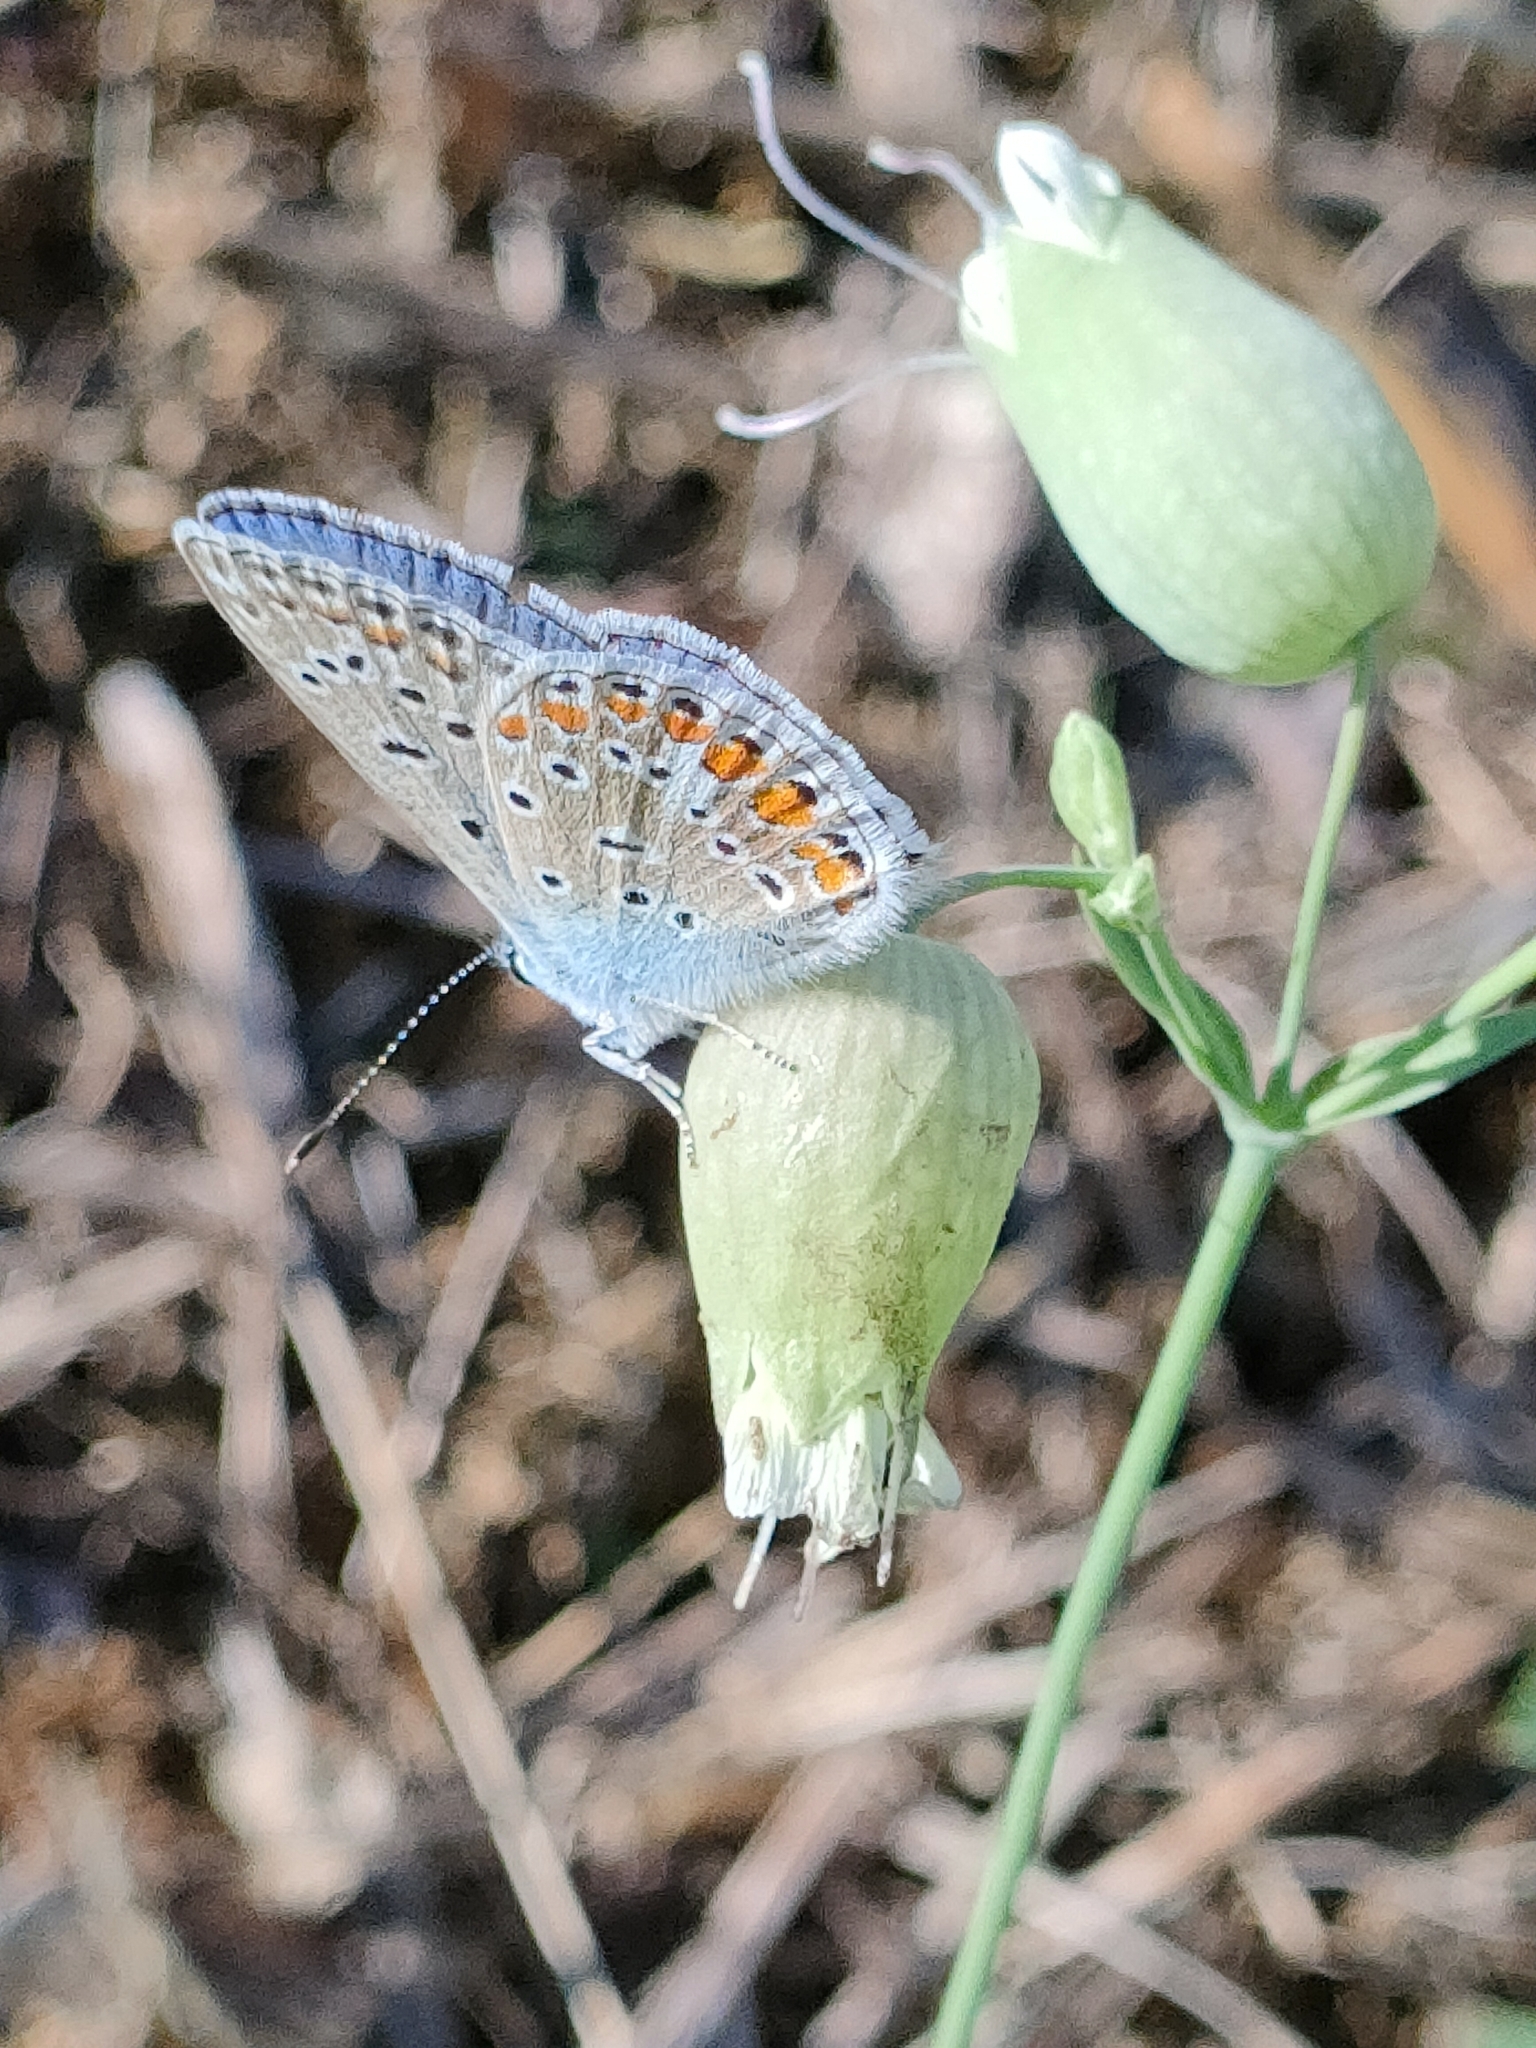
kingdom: Animalia
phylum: Arthropoda
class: Insecta
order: Lepidoptera
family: Lycaenidae
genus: Polyommatus
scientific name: Polyommatus icarus
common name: Common blue
